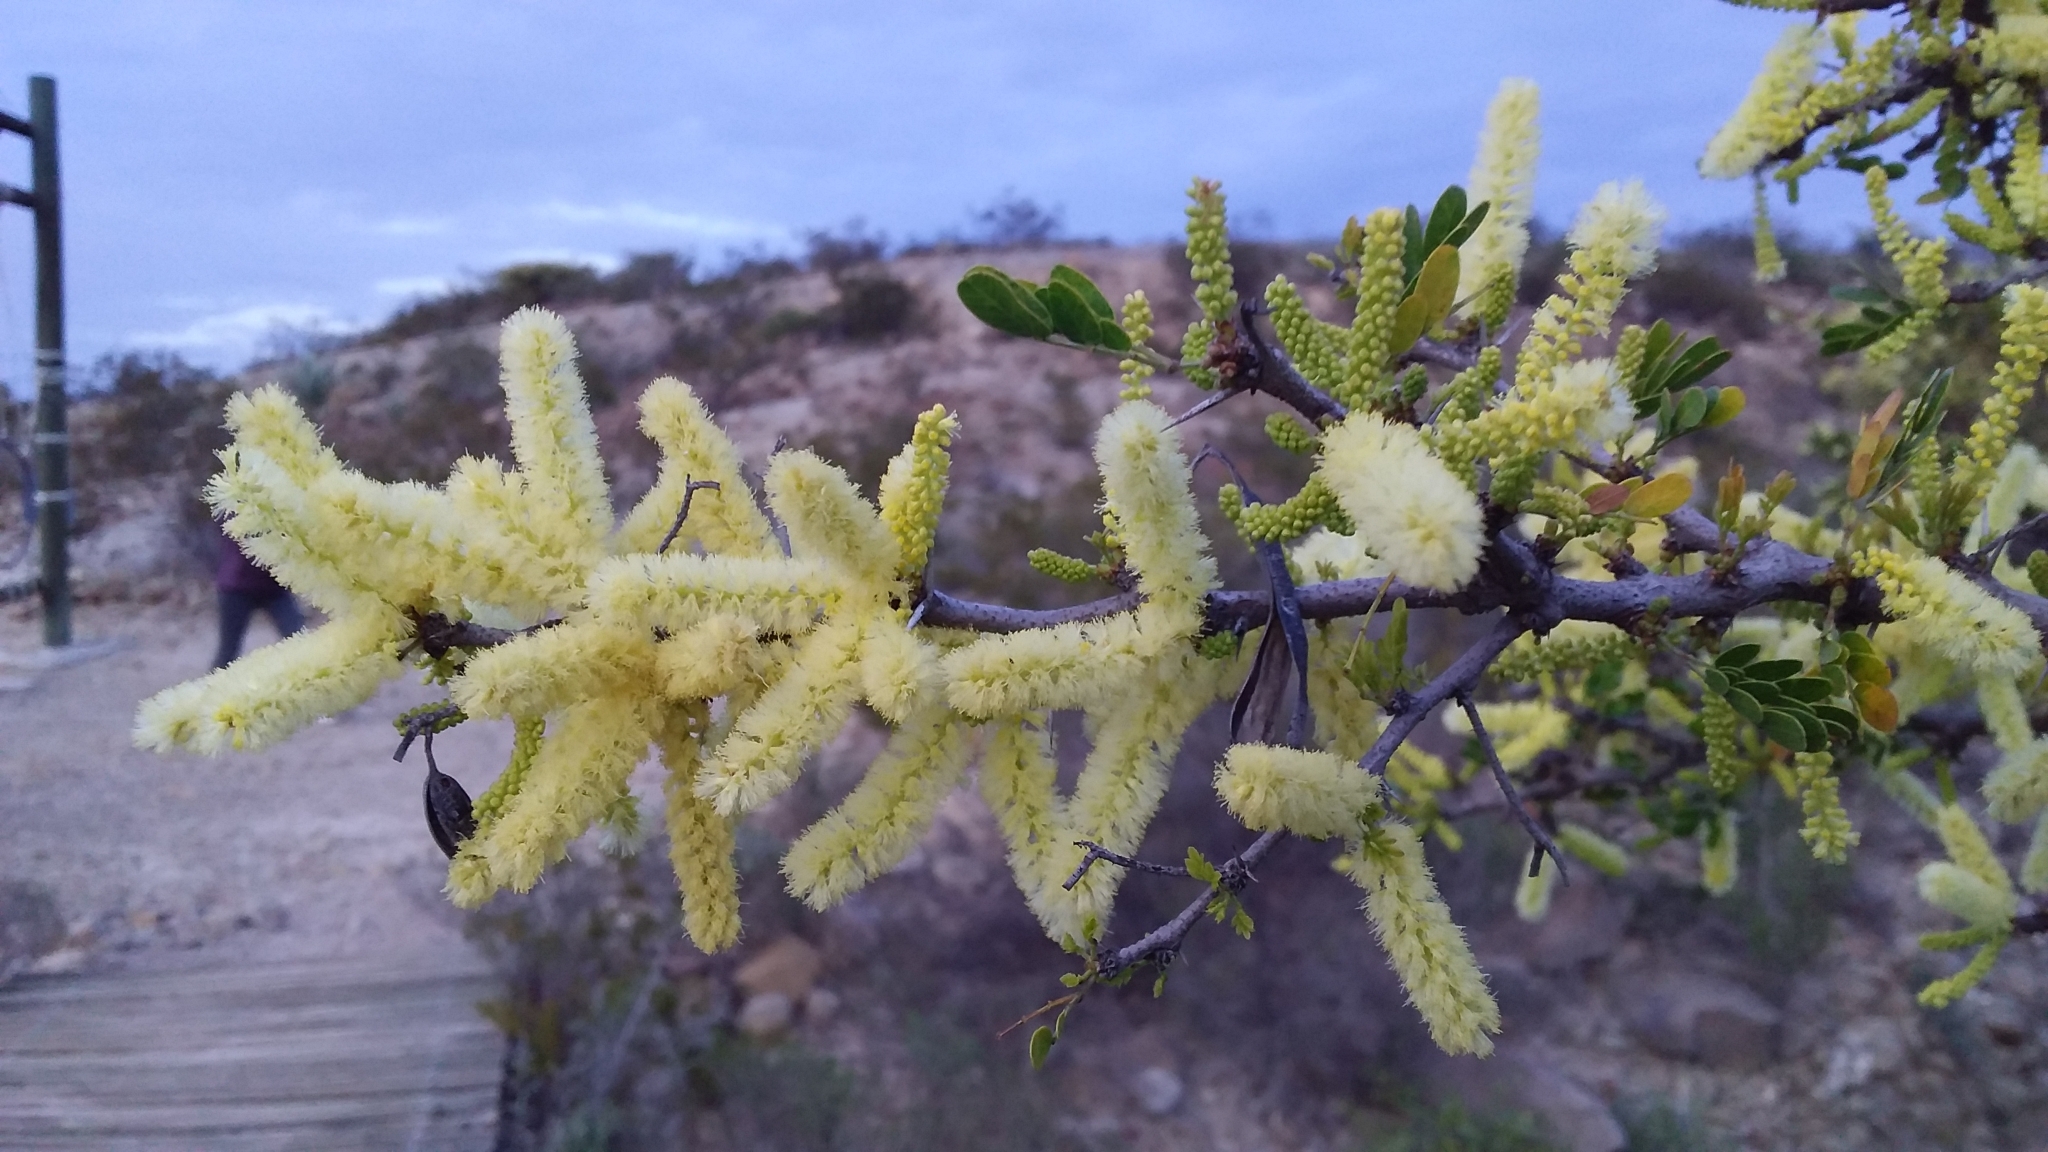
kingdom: Plantae
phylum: Tracheophyta
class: Magnoliopsida
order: Fabales
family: Fabaceae
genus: Vachellia
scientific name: Vachellia rigidula
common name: Blackbrush
